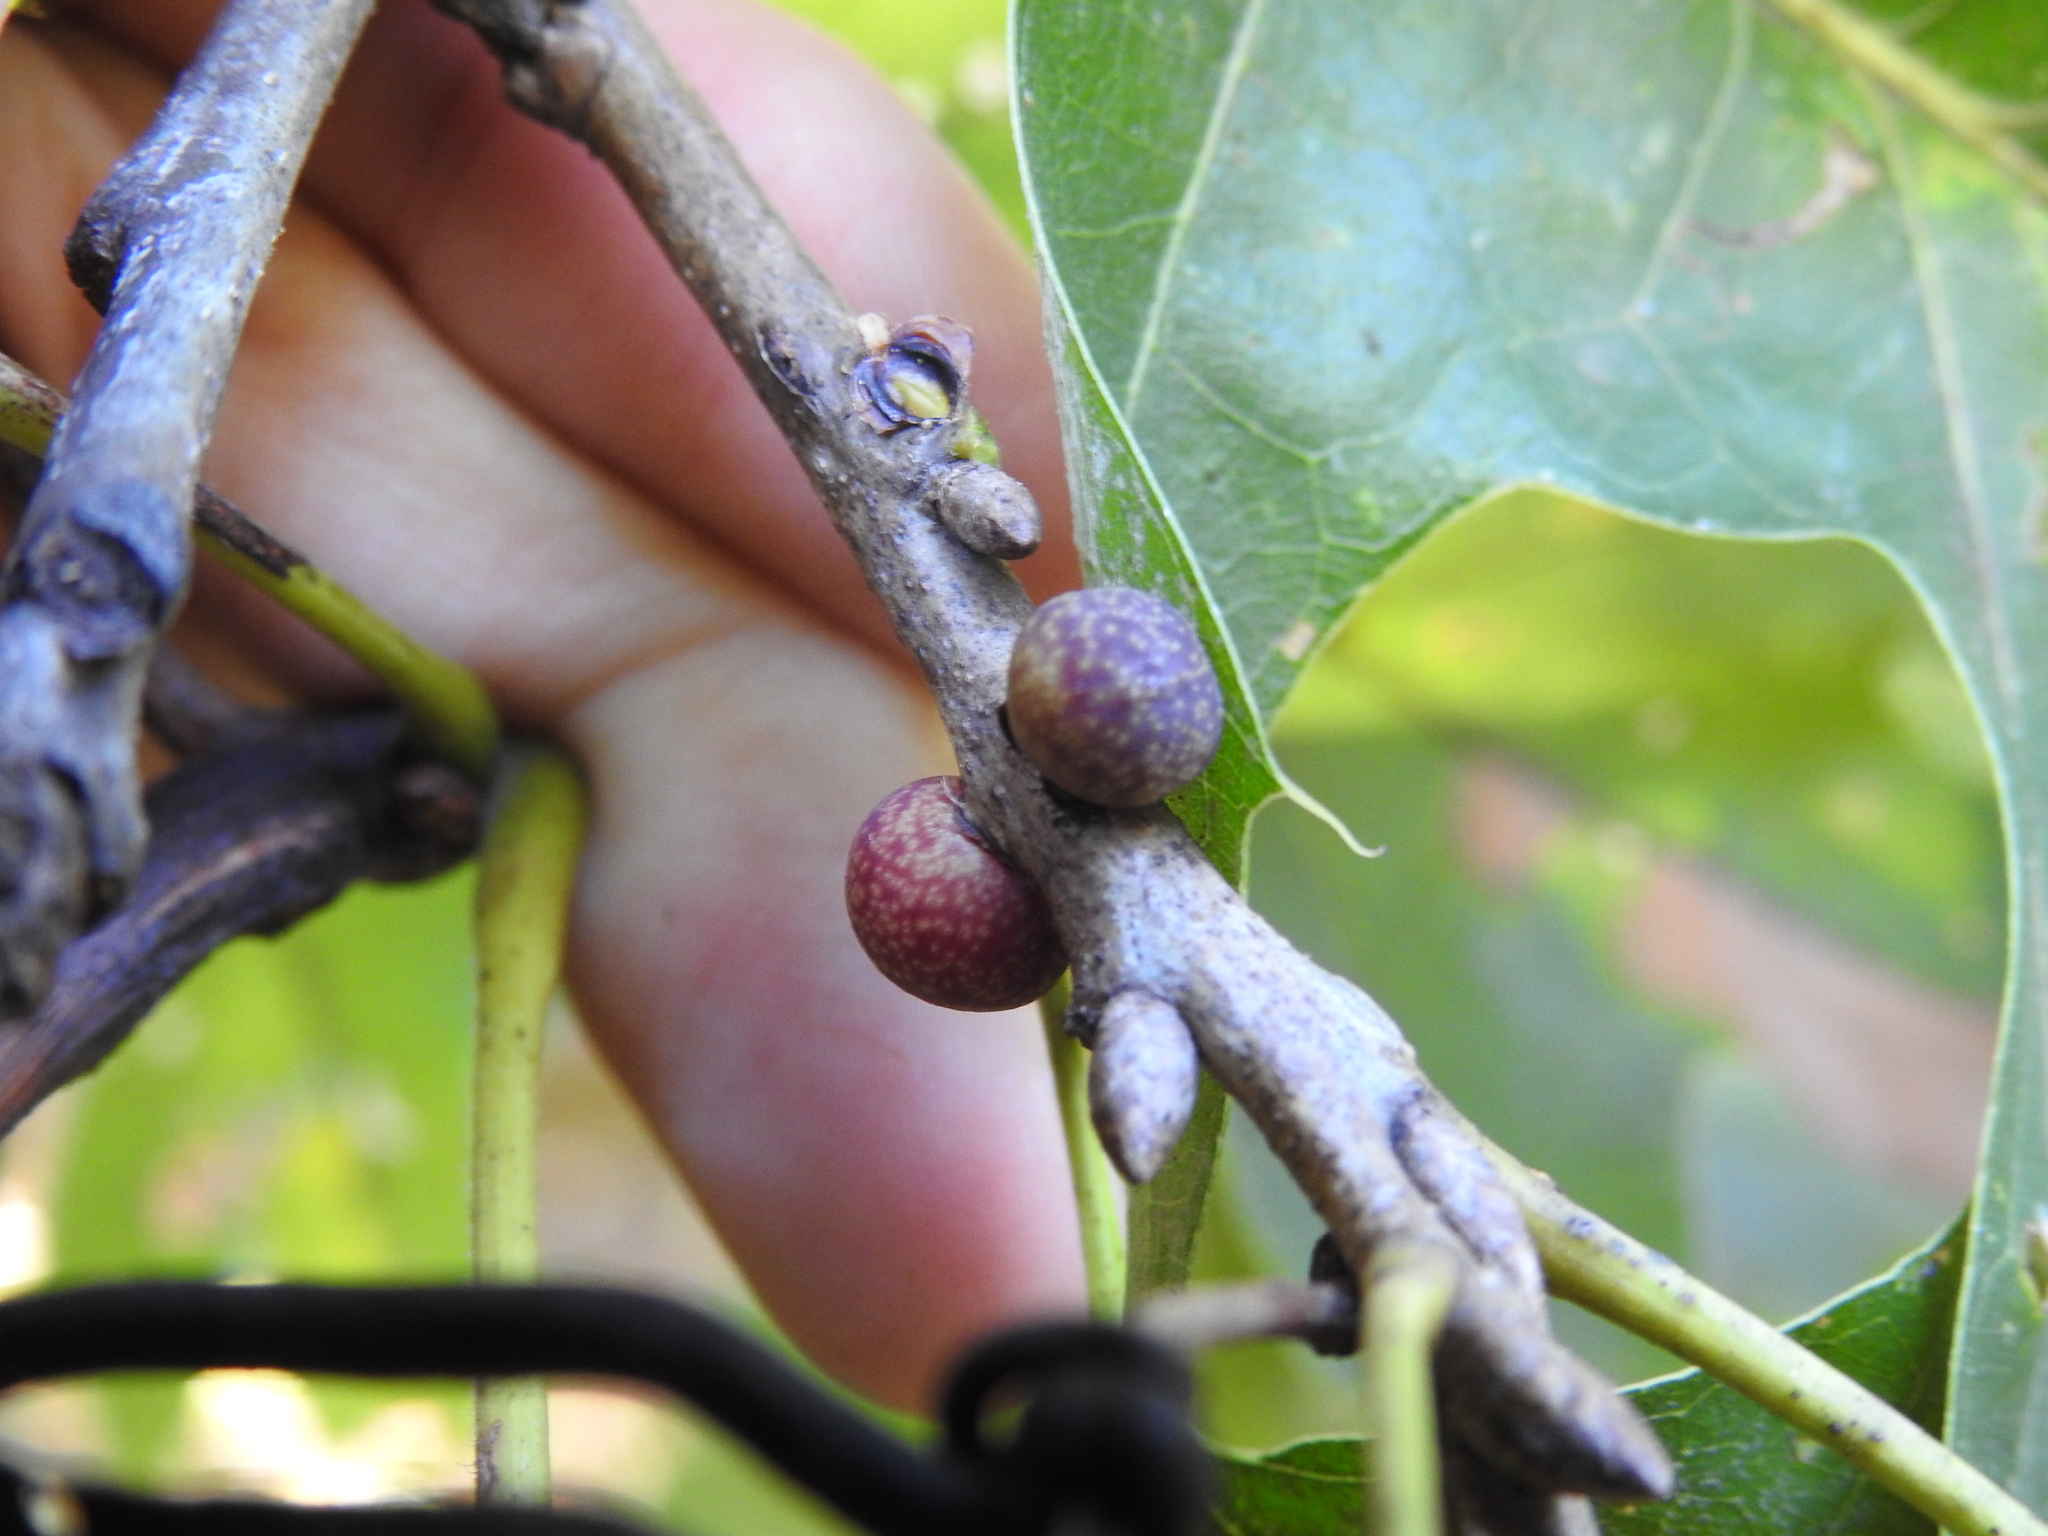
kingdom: Animalia
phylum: Arthropoda
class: Insecta
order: Hymenoptera
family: Cynipidae
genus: Kokkocynips
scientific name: Kokkocynips imbricariae
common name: Banded bullet gall wasp
